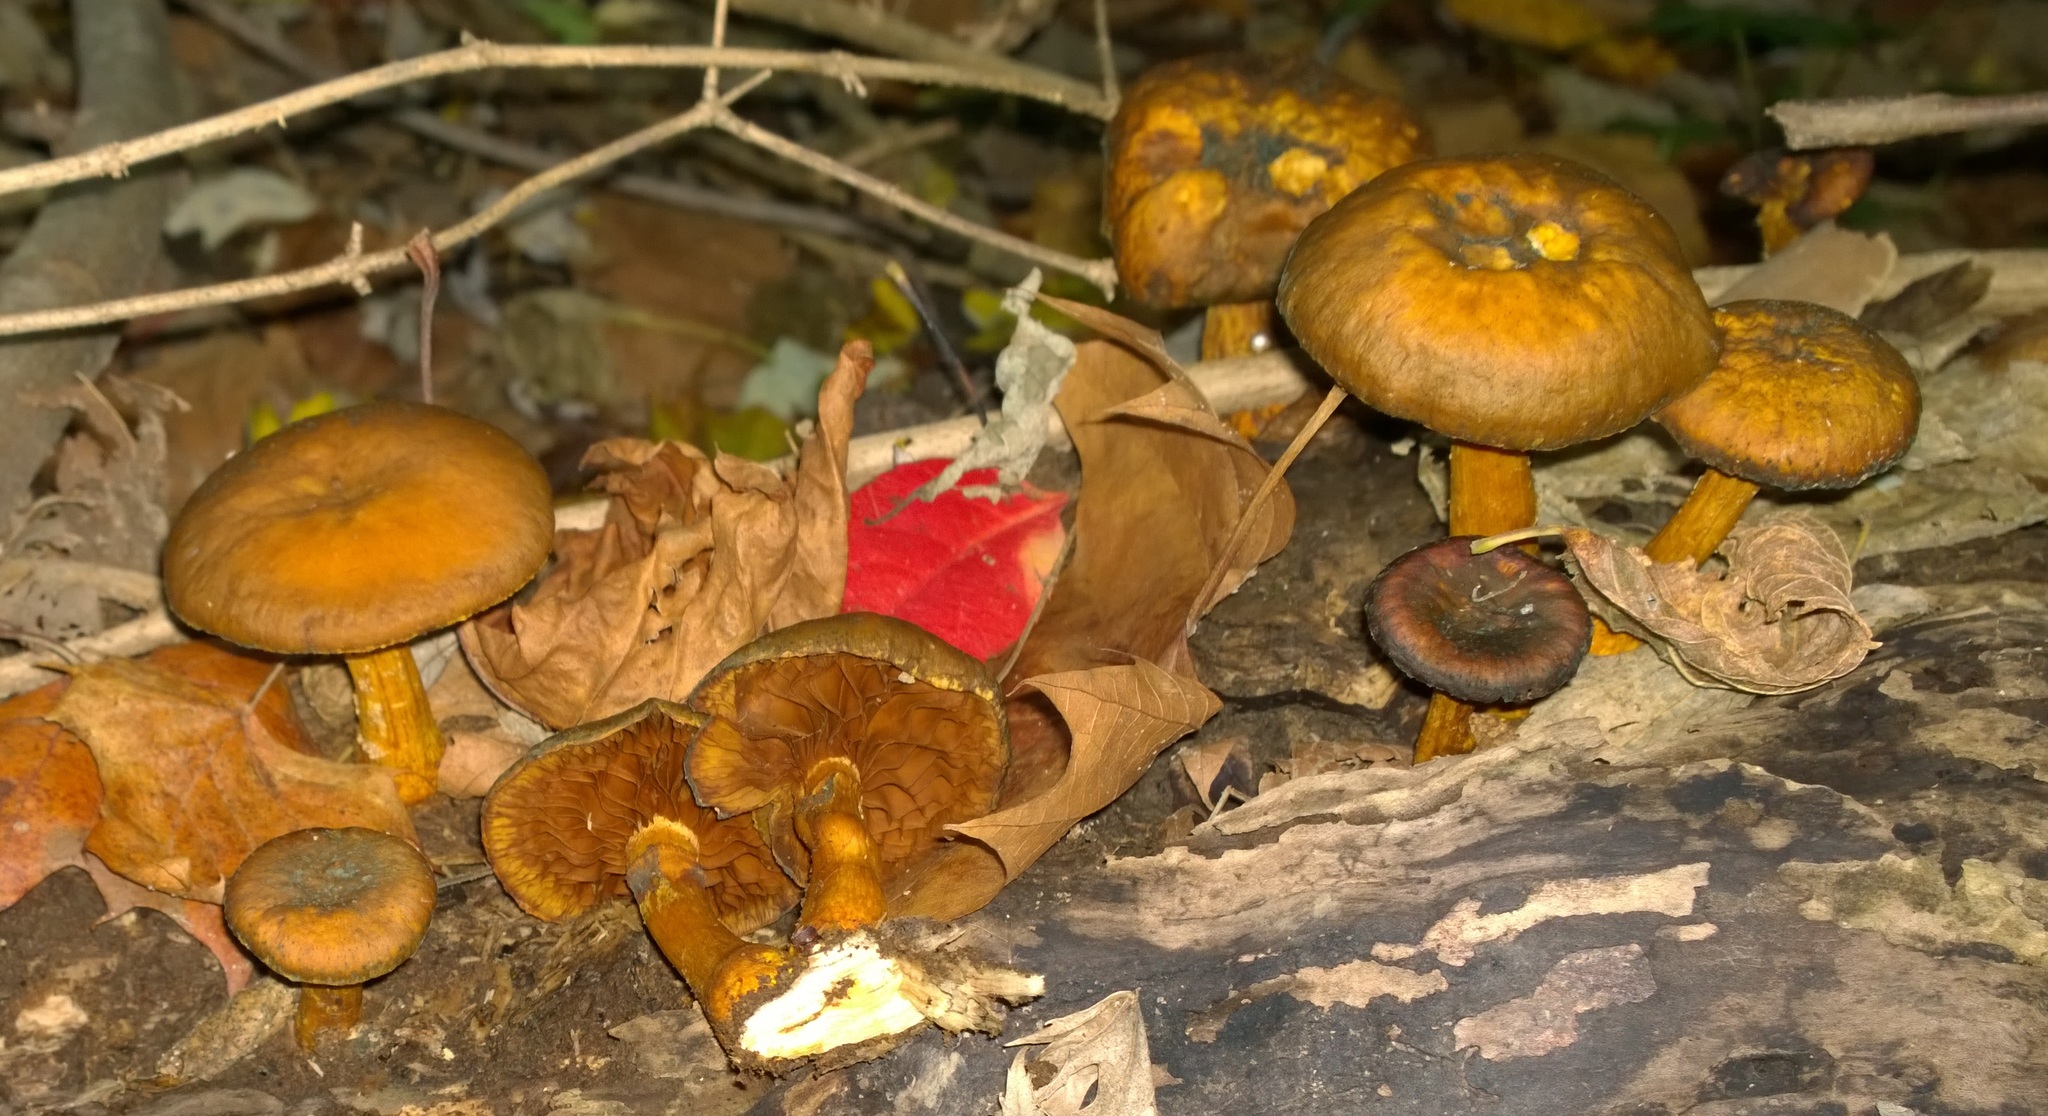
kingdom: Fungi
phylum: Basidiomycota
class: Agaricomycetes
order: Agaricales
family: Hymenogastraceae
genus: Gymnopilus
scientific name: Gymnopilus luteus
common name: Yellow gymnopilus
